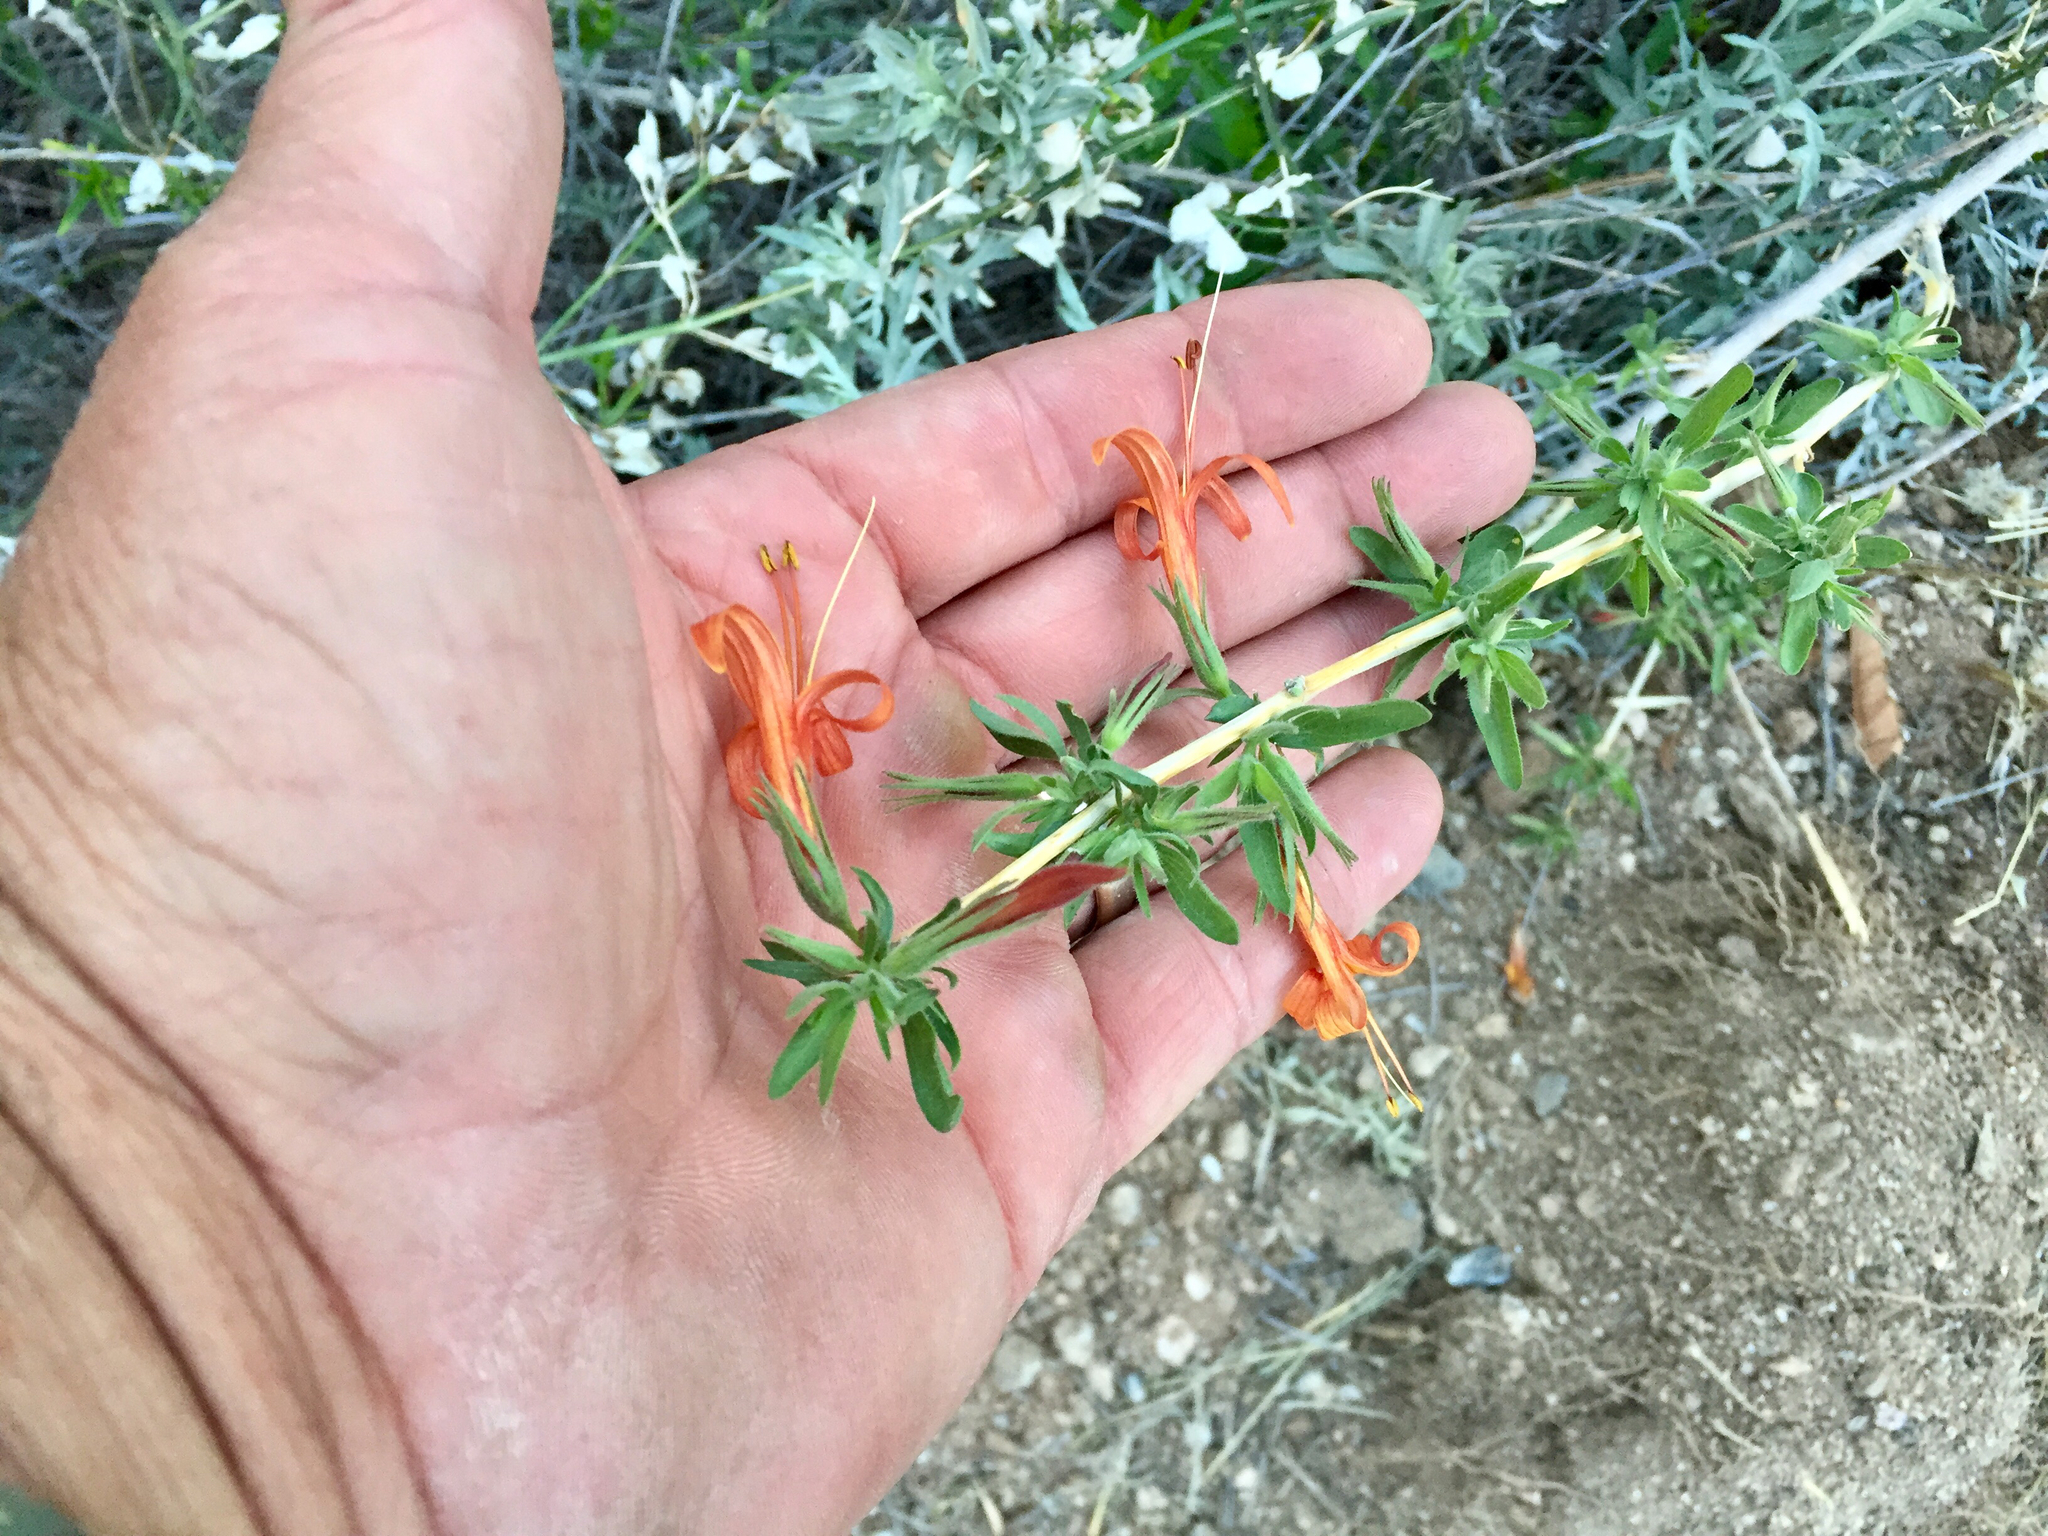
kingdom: Plantae
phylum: Tracheophyta
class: Magnoliopsida
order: Lamiales
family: Acanthaceae
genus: Anisacanthus
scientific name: Anisacanthus thurberi
